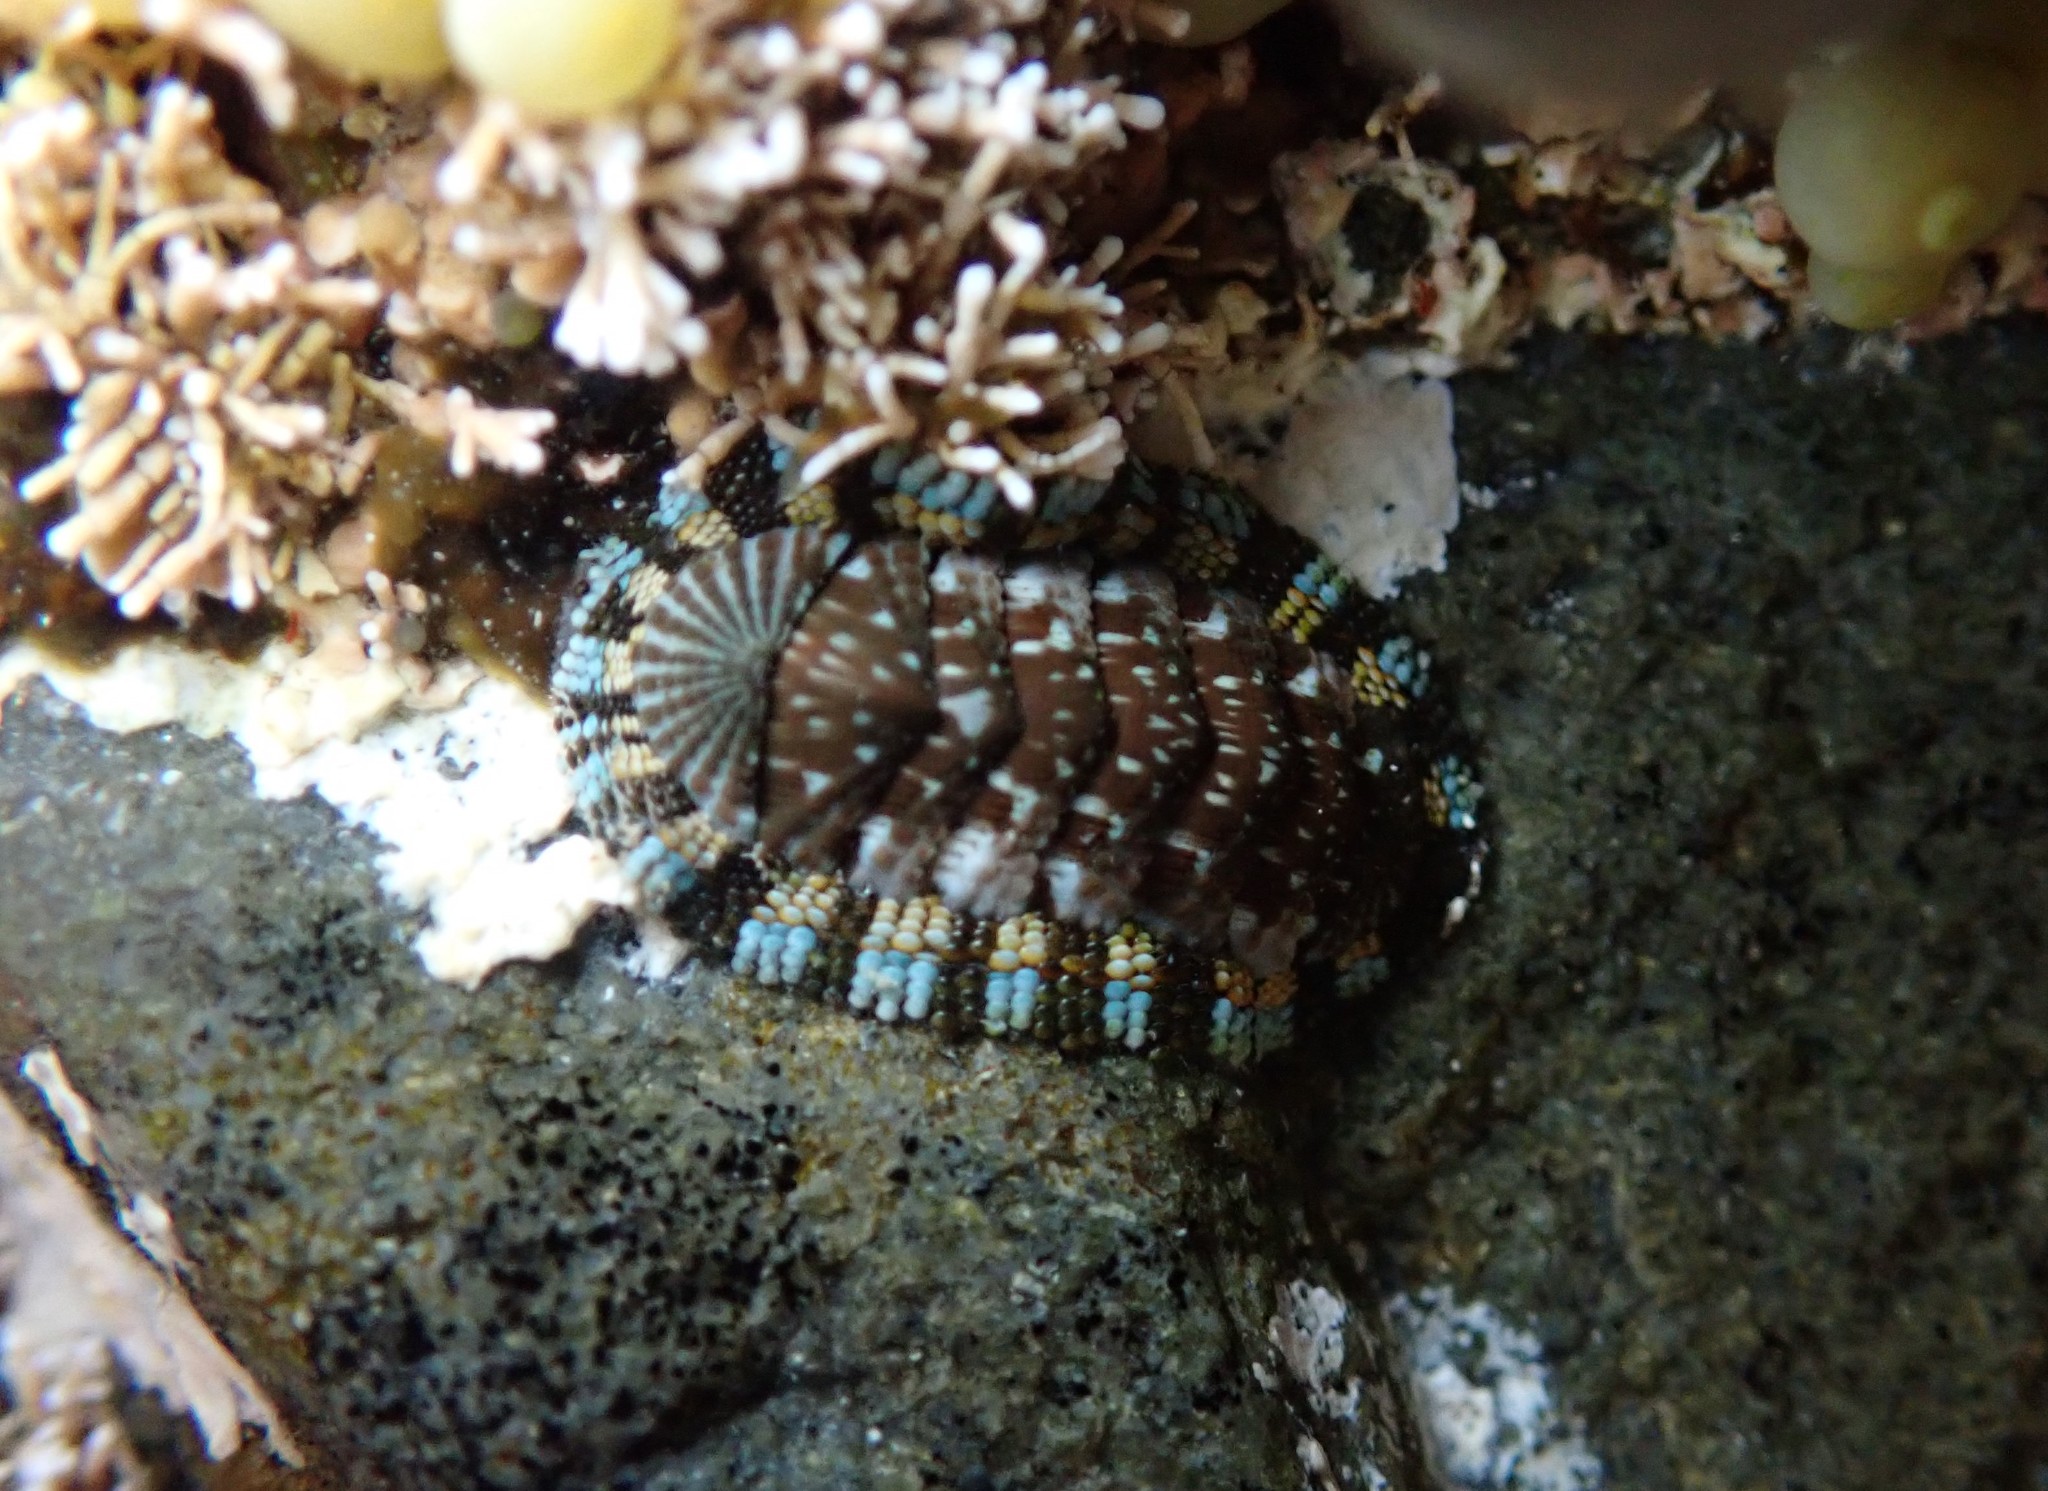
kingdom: Animalia
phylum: Mollusca
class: Polyplacophora
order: Chitonida
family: Chitonidae
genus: Sypharochiton
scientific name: Sypharochiton sinclairi
